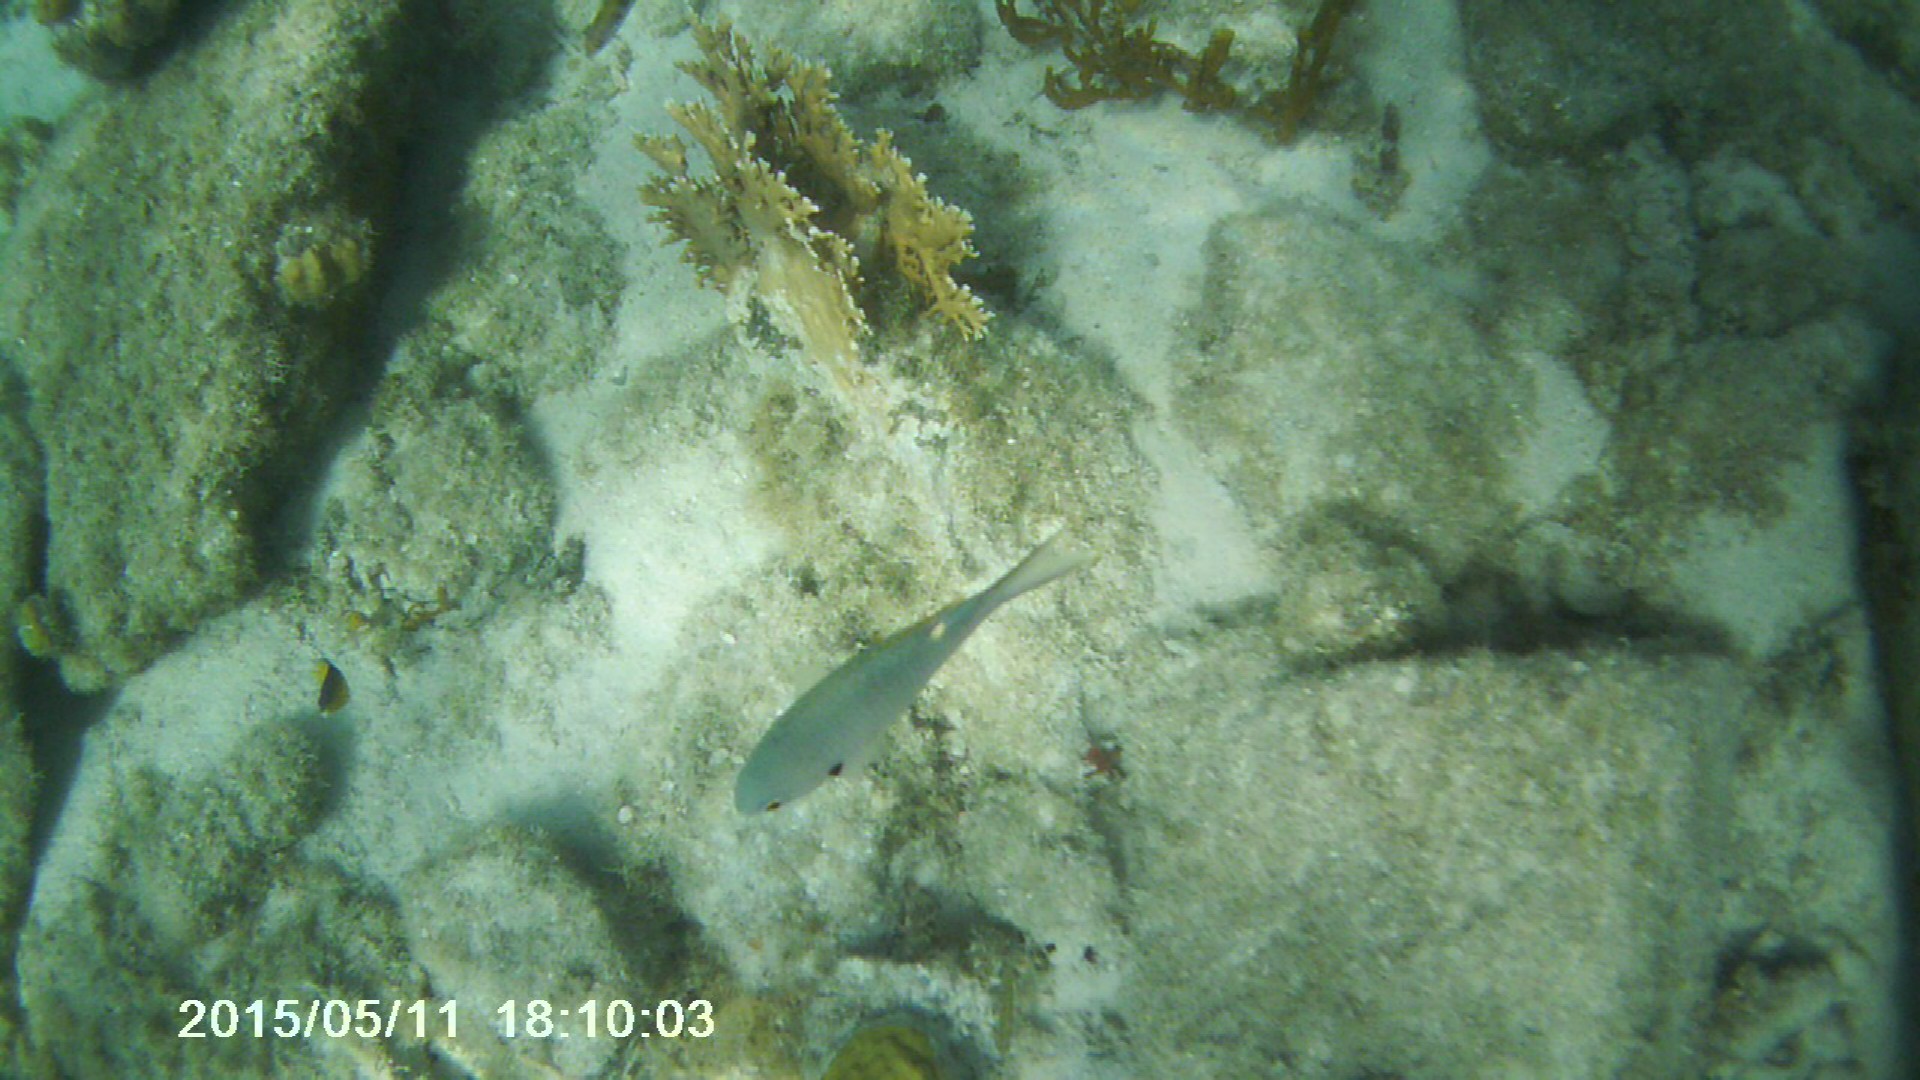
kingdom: Animalia
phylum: Chordata
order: Perciformes
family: Pomacentridae
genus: Chromis
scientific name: Chromis multilineata
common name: Brown chromis
